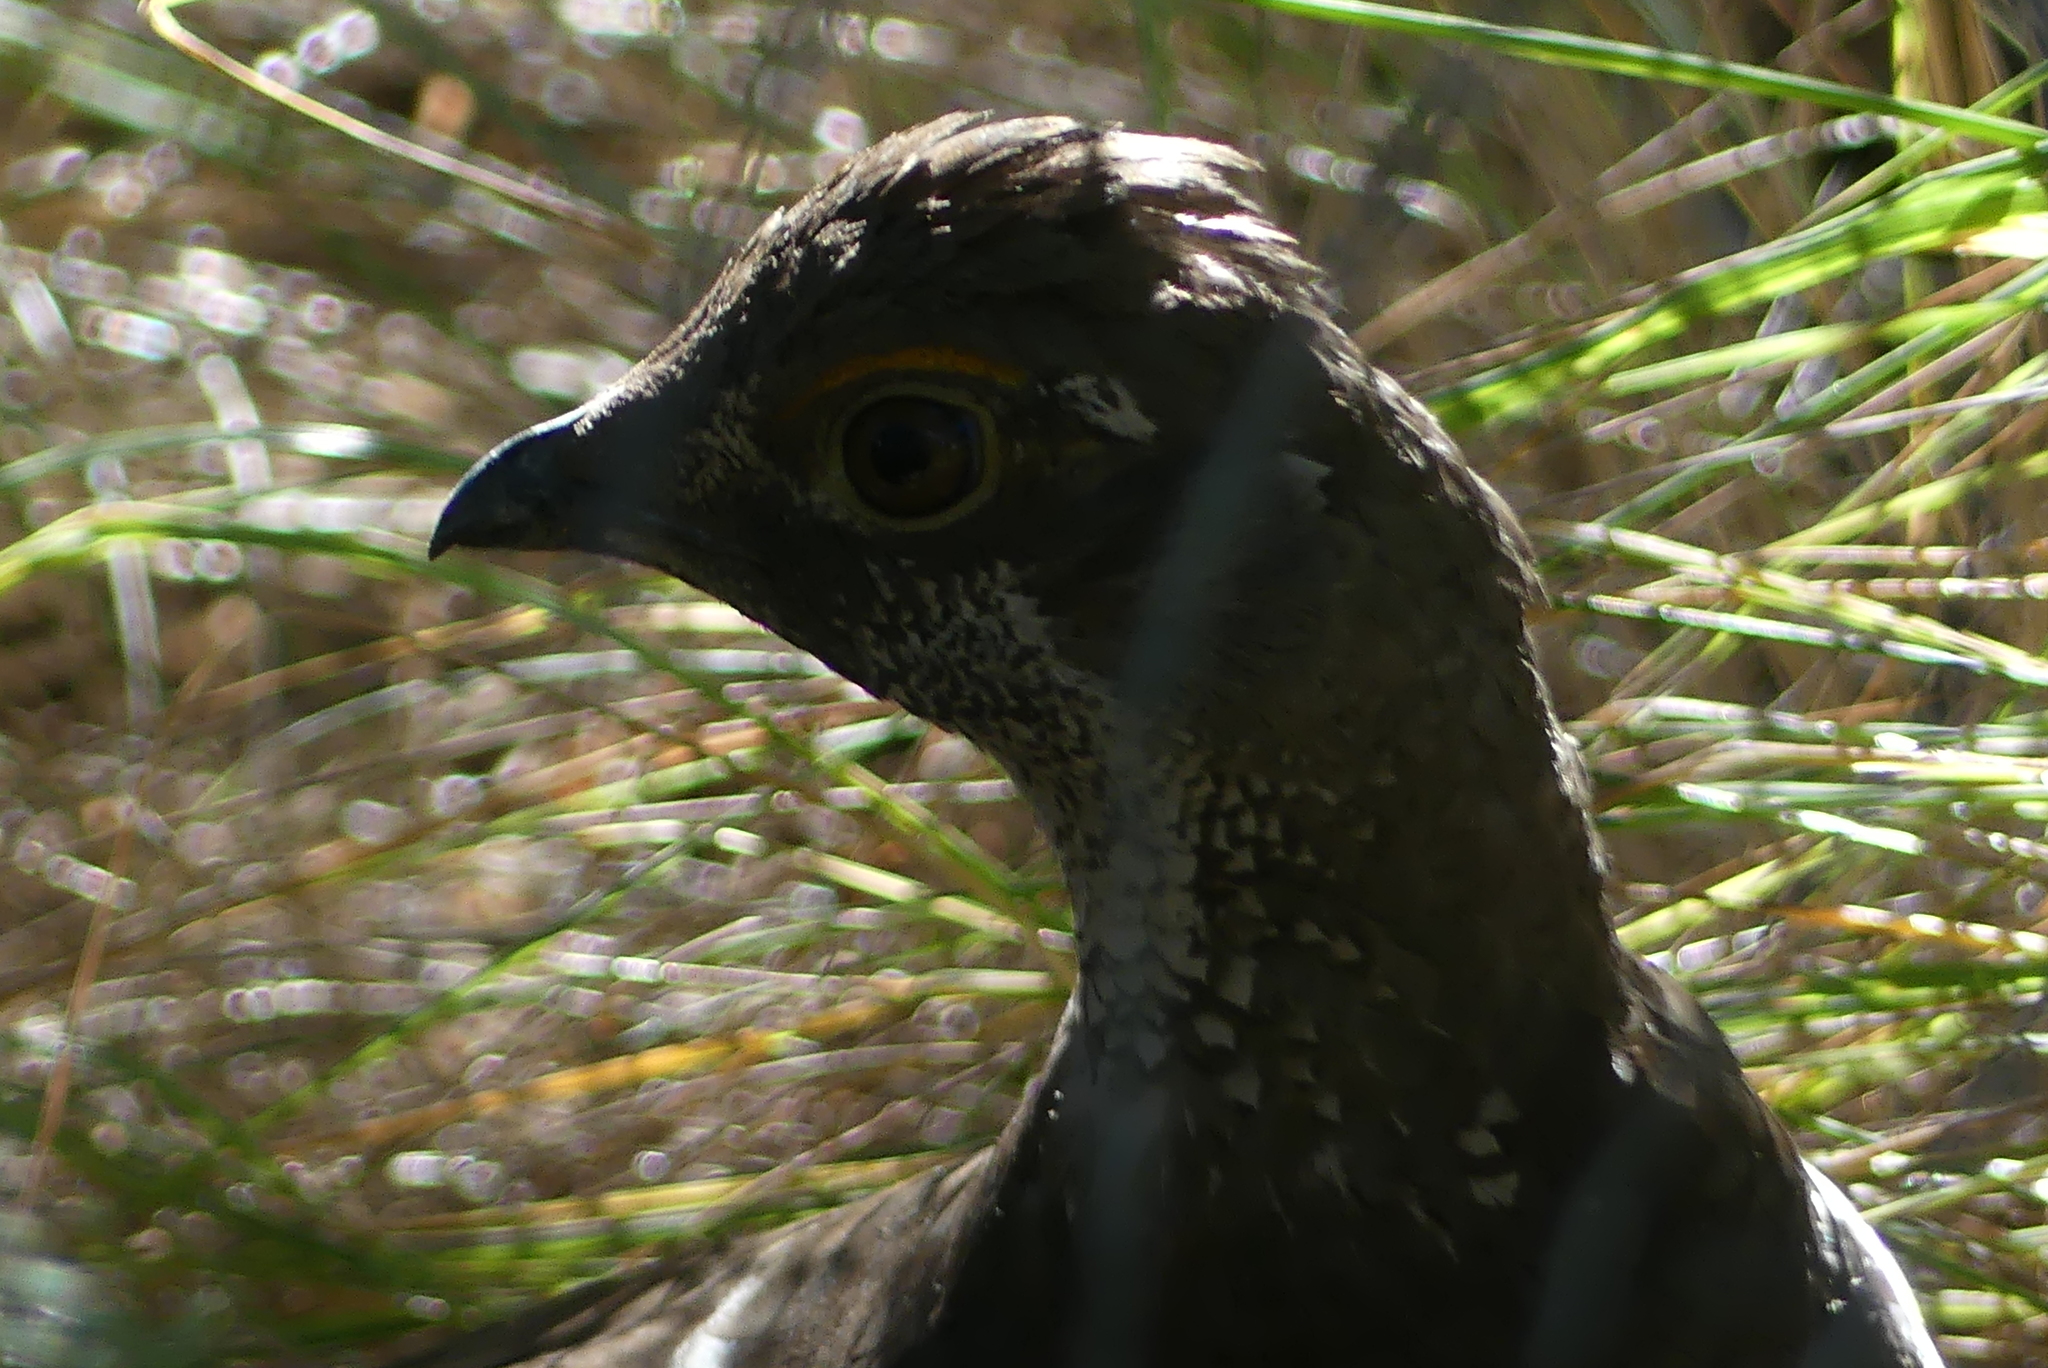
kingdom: Animalia
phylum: Chordata
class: Aves
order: Galliformes
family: Phasianidae
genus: Dendragapus
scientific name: Dendragapus obscurus
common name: Dusky grouse
